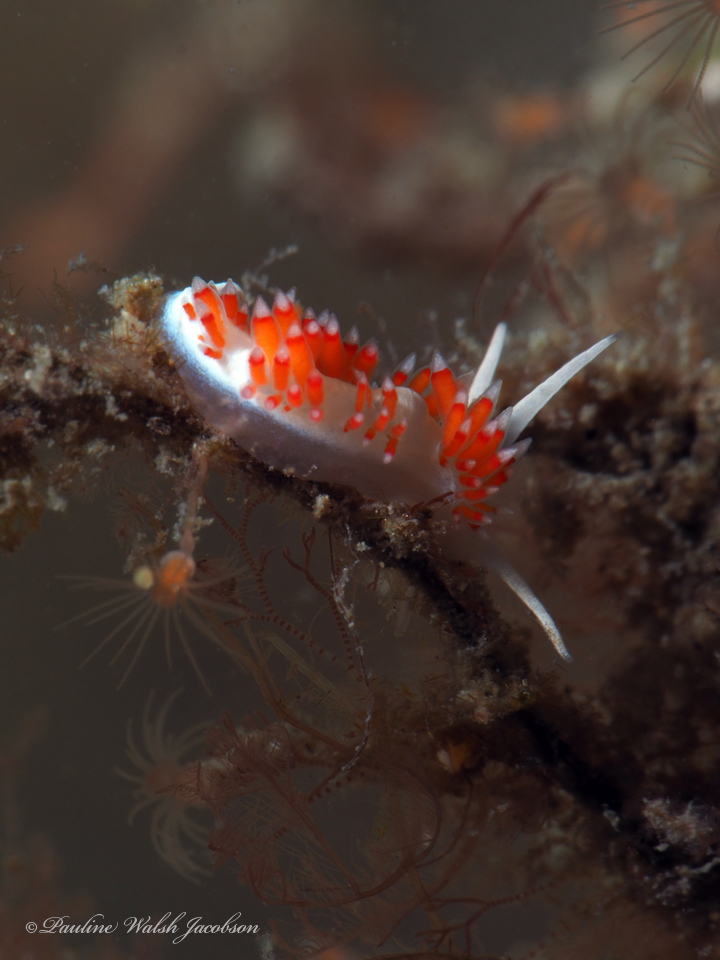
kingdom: Animalia
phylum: Mollusca
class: Gastropoda
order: Nudibranchia
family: Flabellinidae
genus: Flabellina
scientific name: Flabellina dushia
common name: Dushia flabellina
